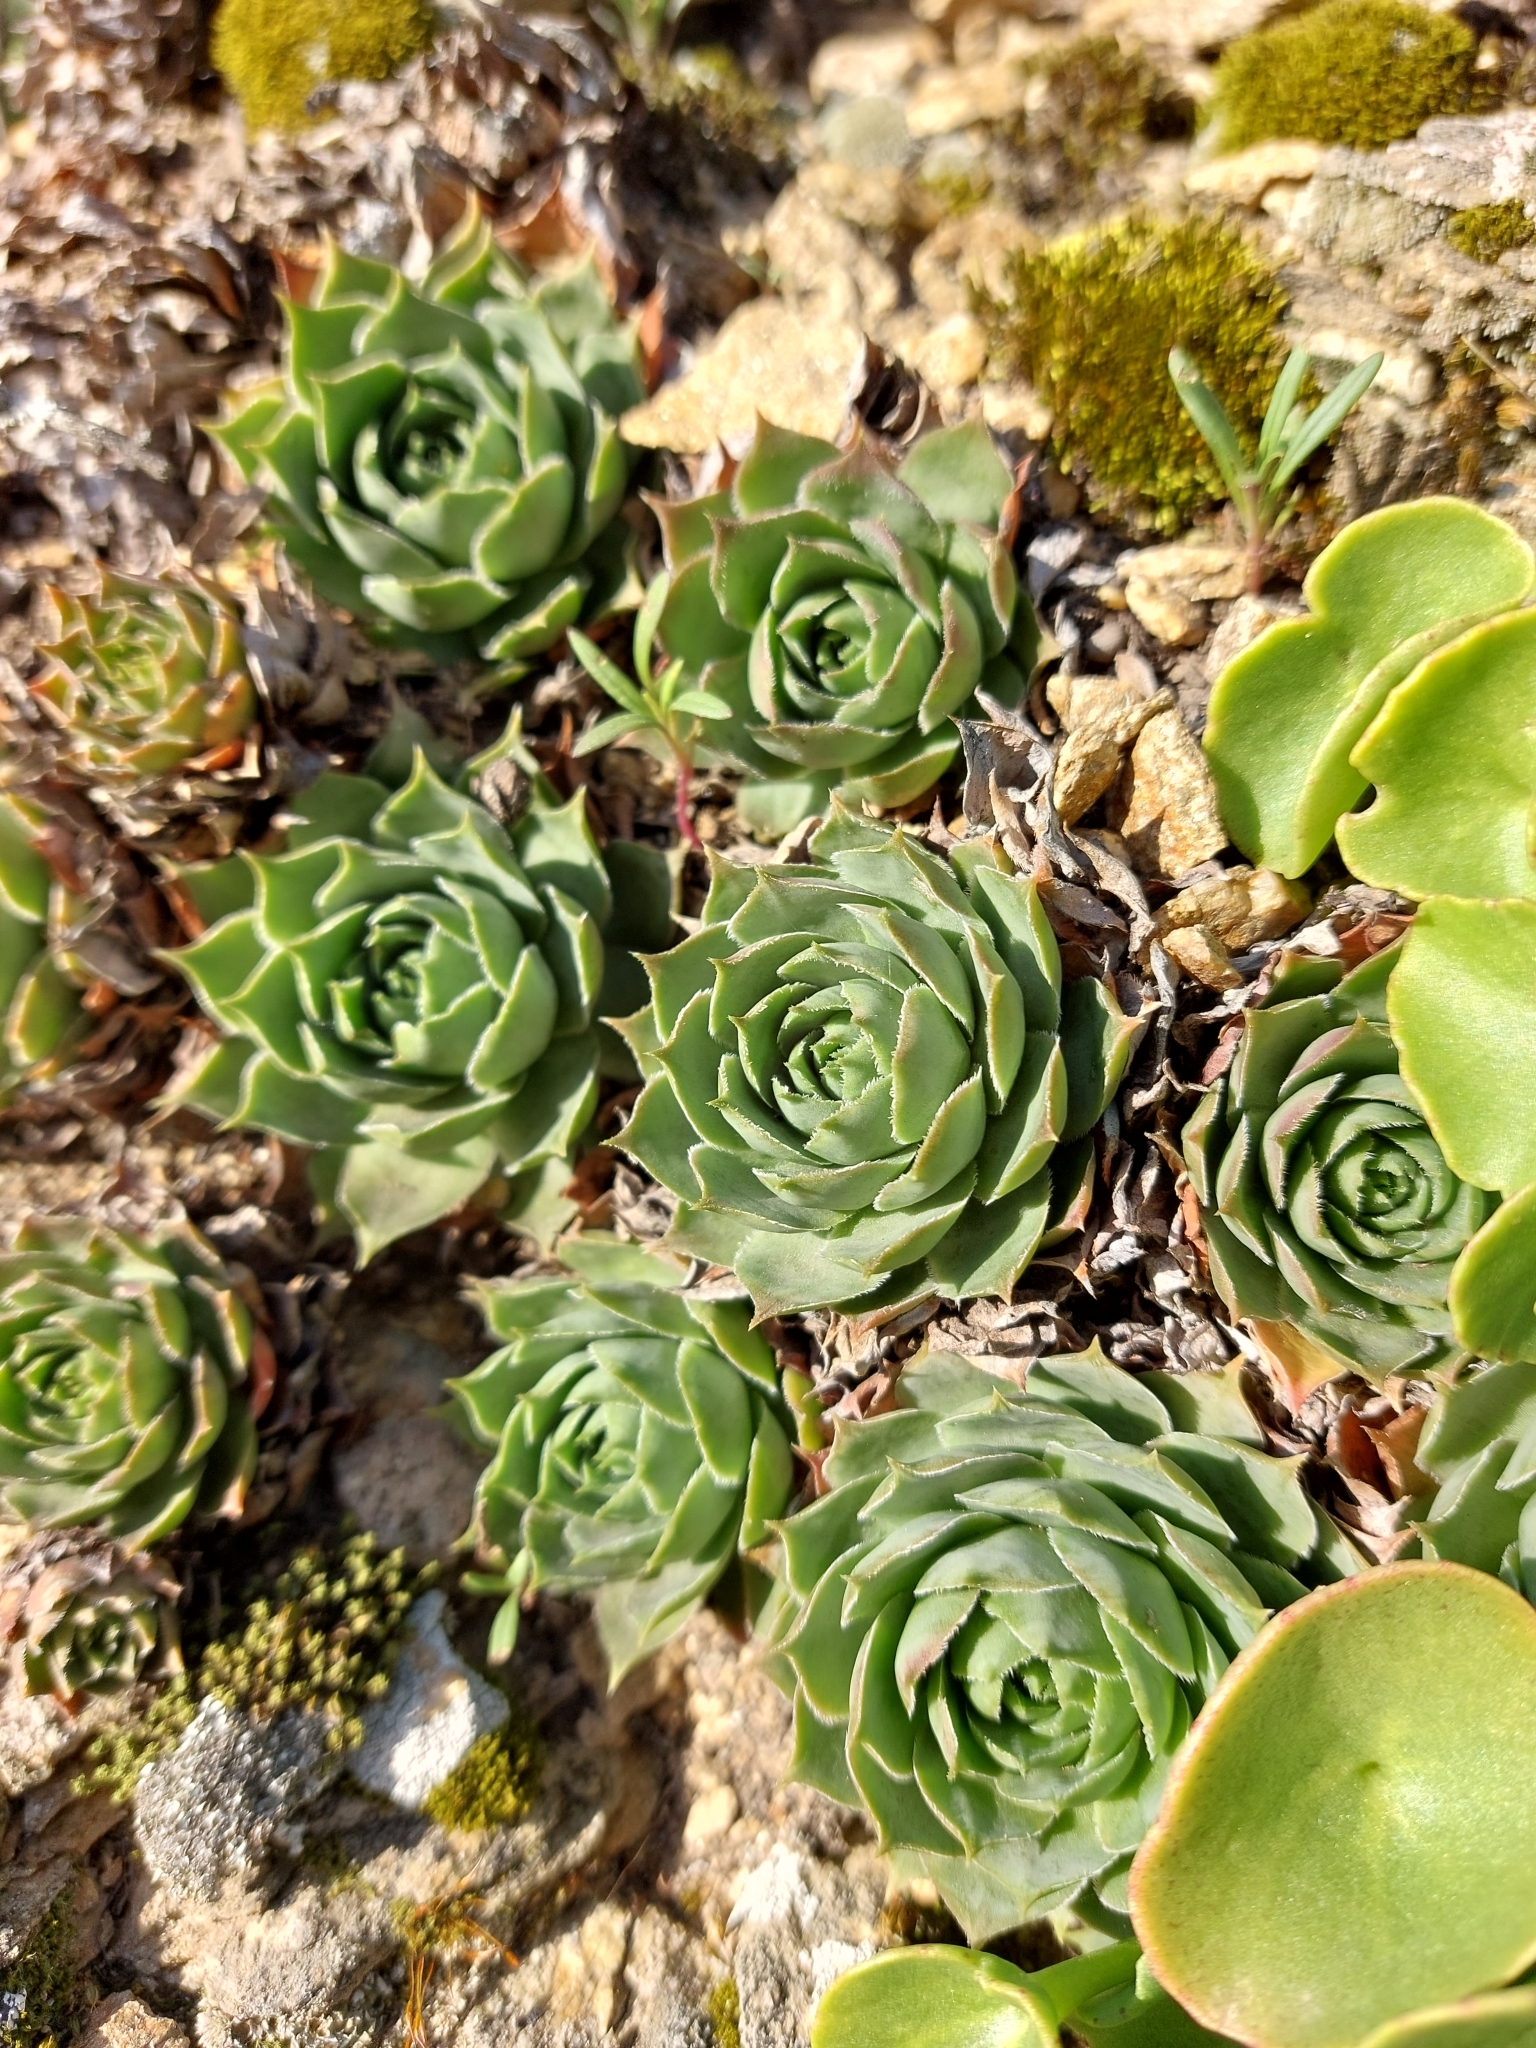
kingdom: Plantae
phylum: Tracheophyta
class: Magnoliopsida
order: Saxifragales
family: Crassulaceae
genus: Sempervivum
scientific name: Sempervivum tectorum
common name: House-leek
